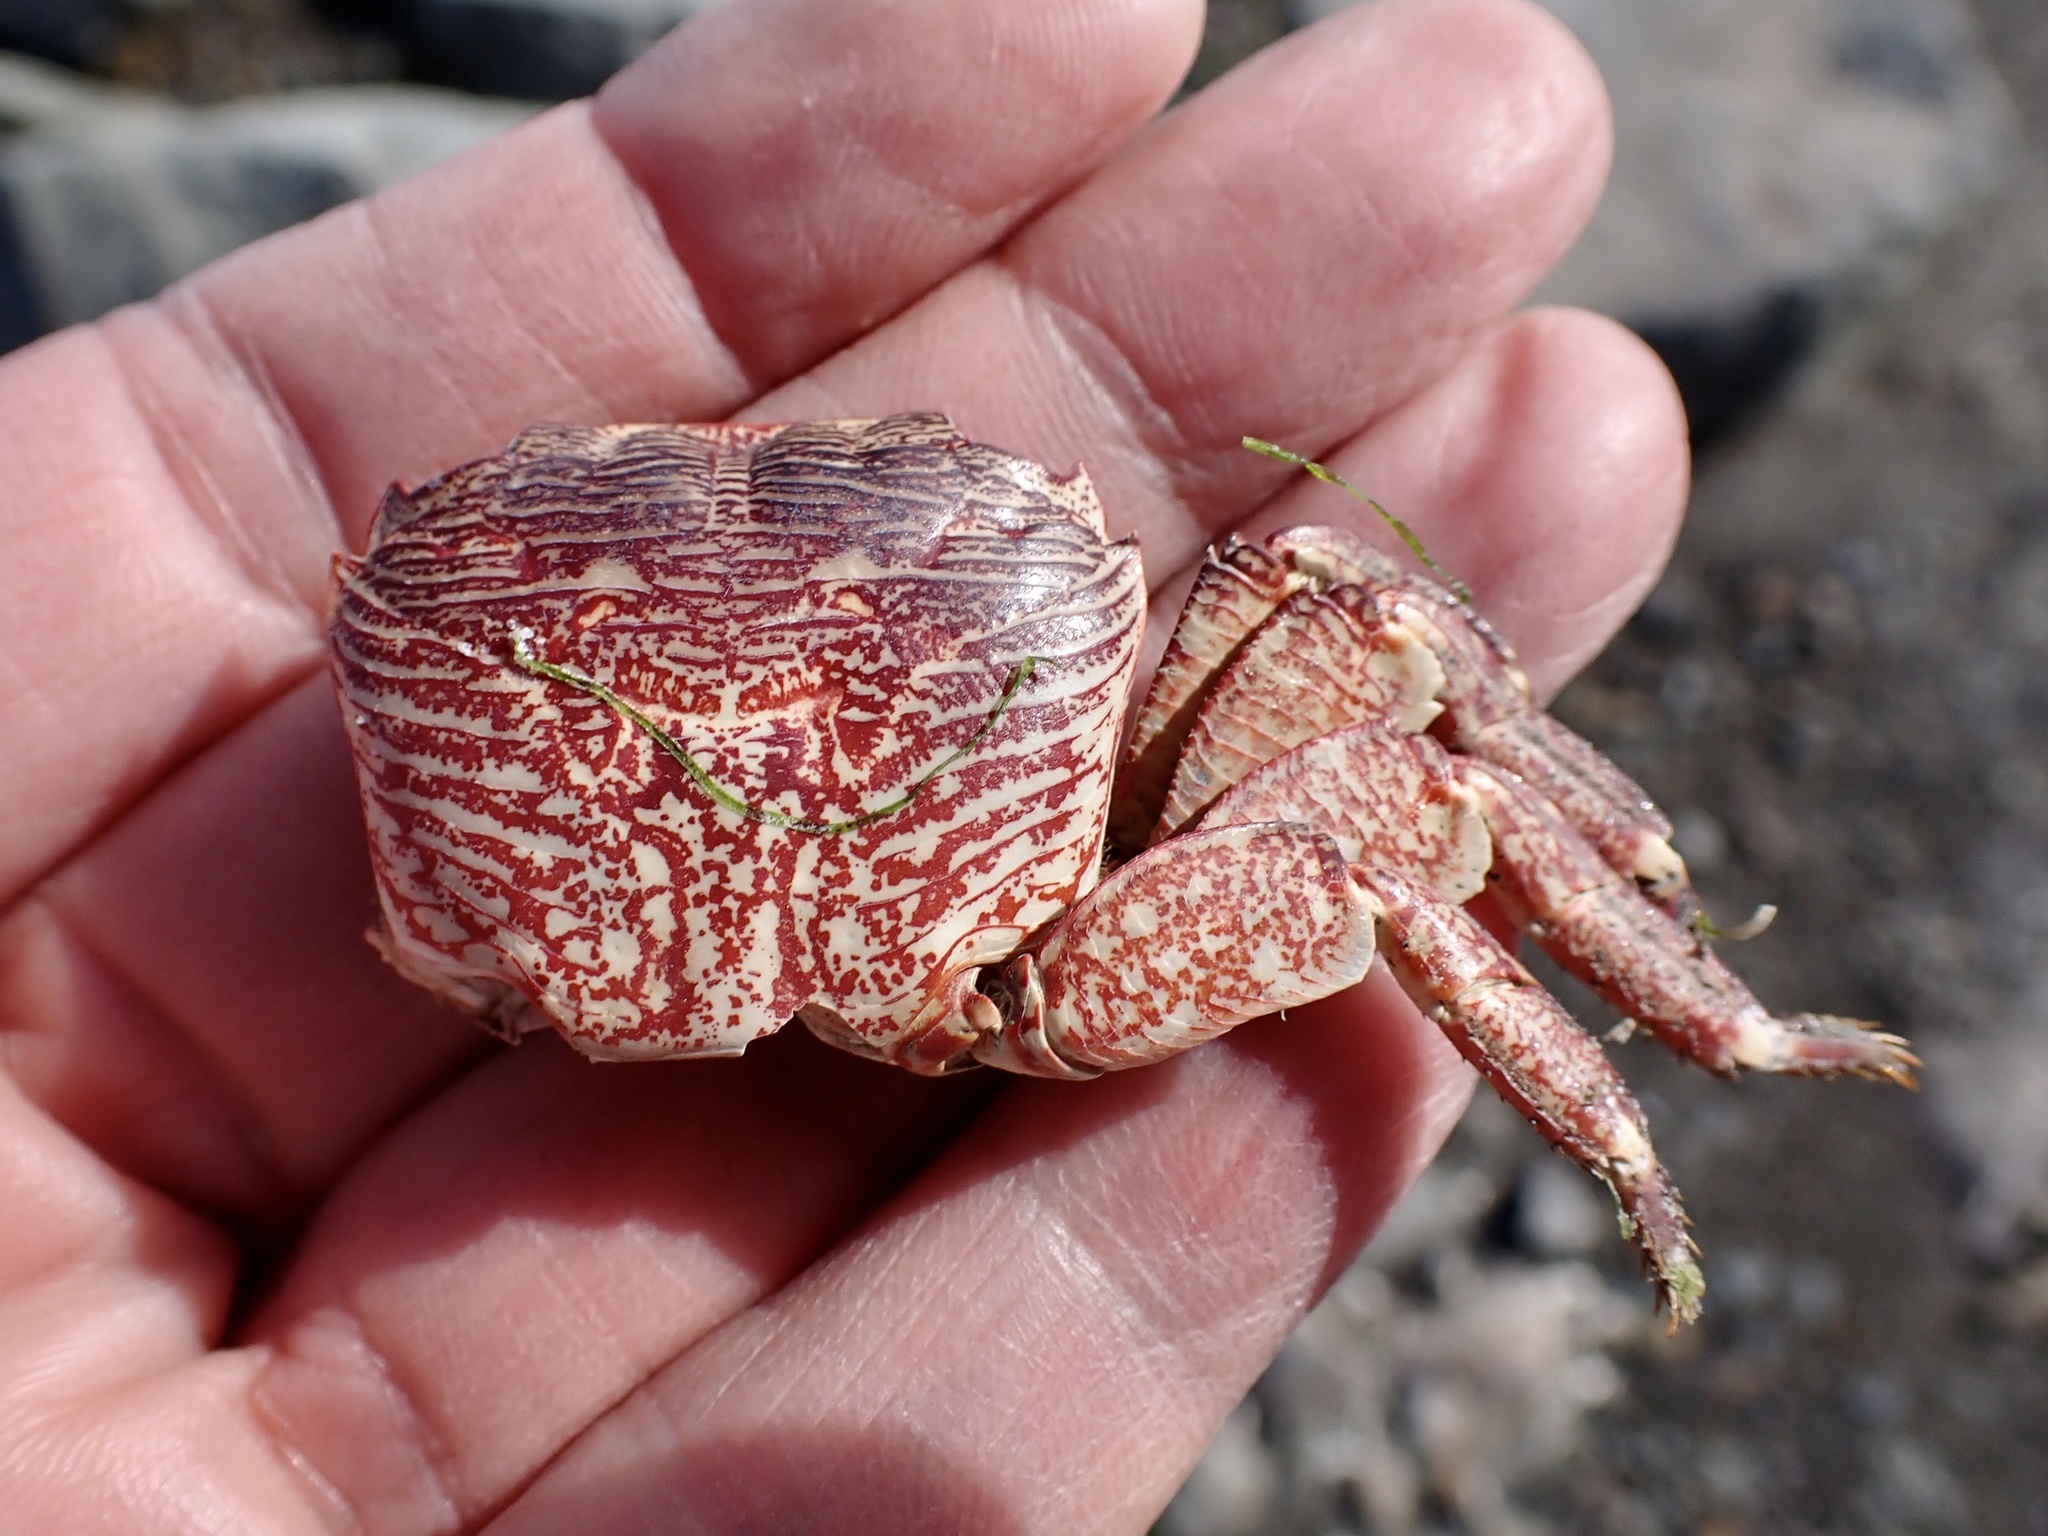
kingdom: Animalia
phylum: Arthropoda
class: Malacostraca
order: Decapoda
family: Grapsidae
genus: Pachygrapsus
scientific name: Pachygrapsus crassipes
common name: Striped shore crab
